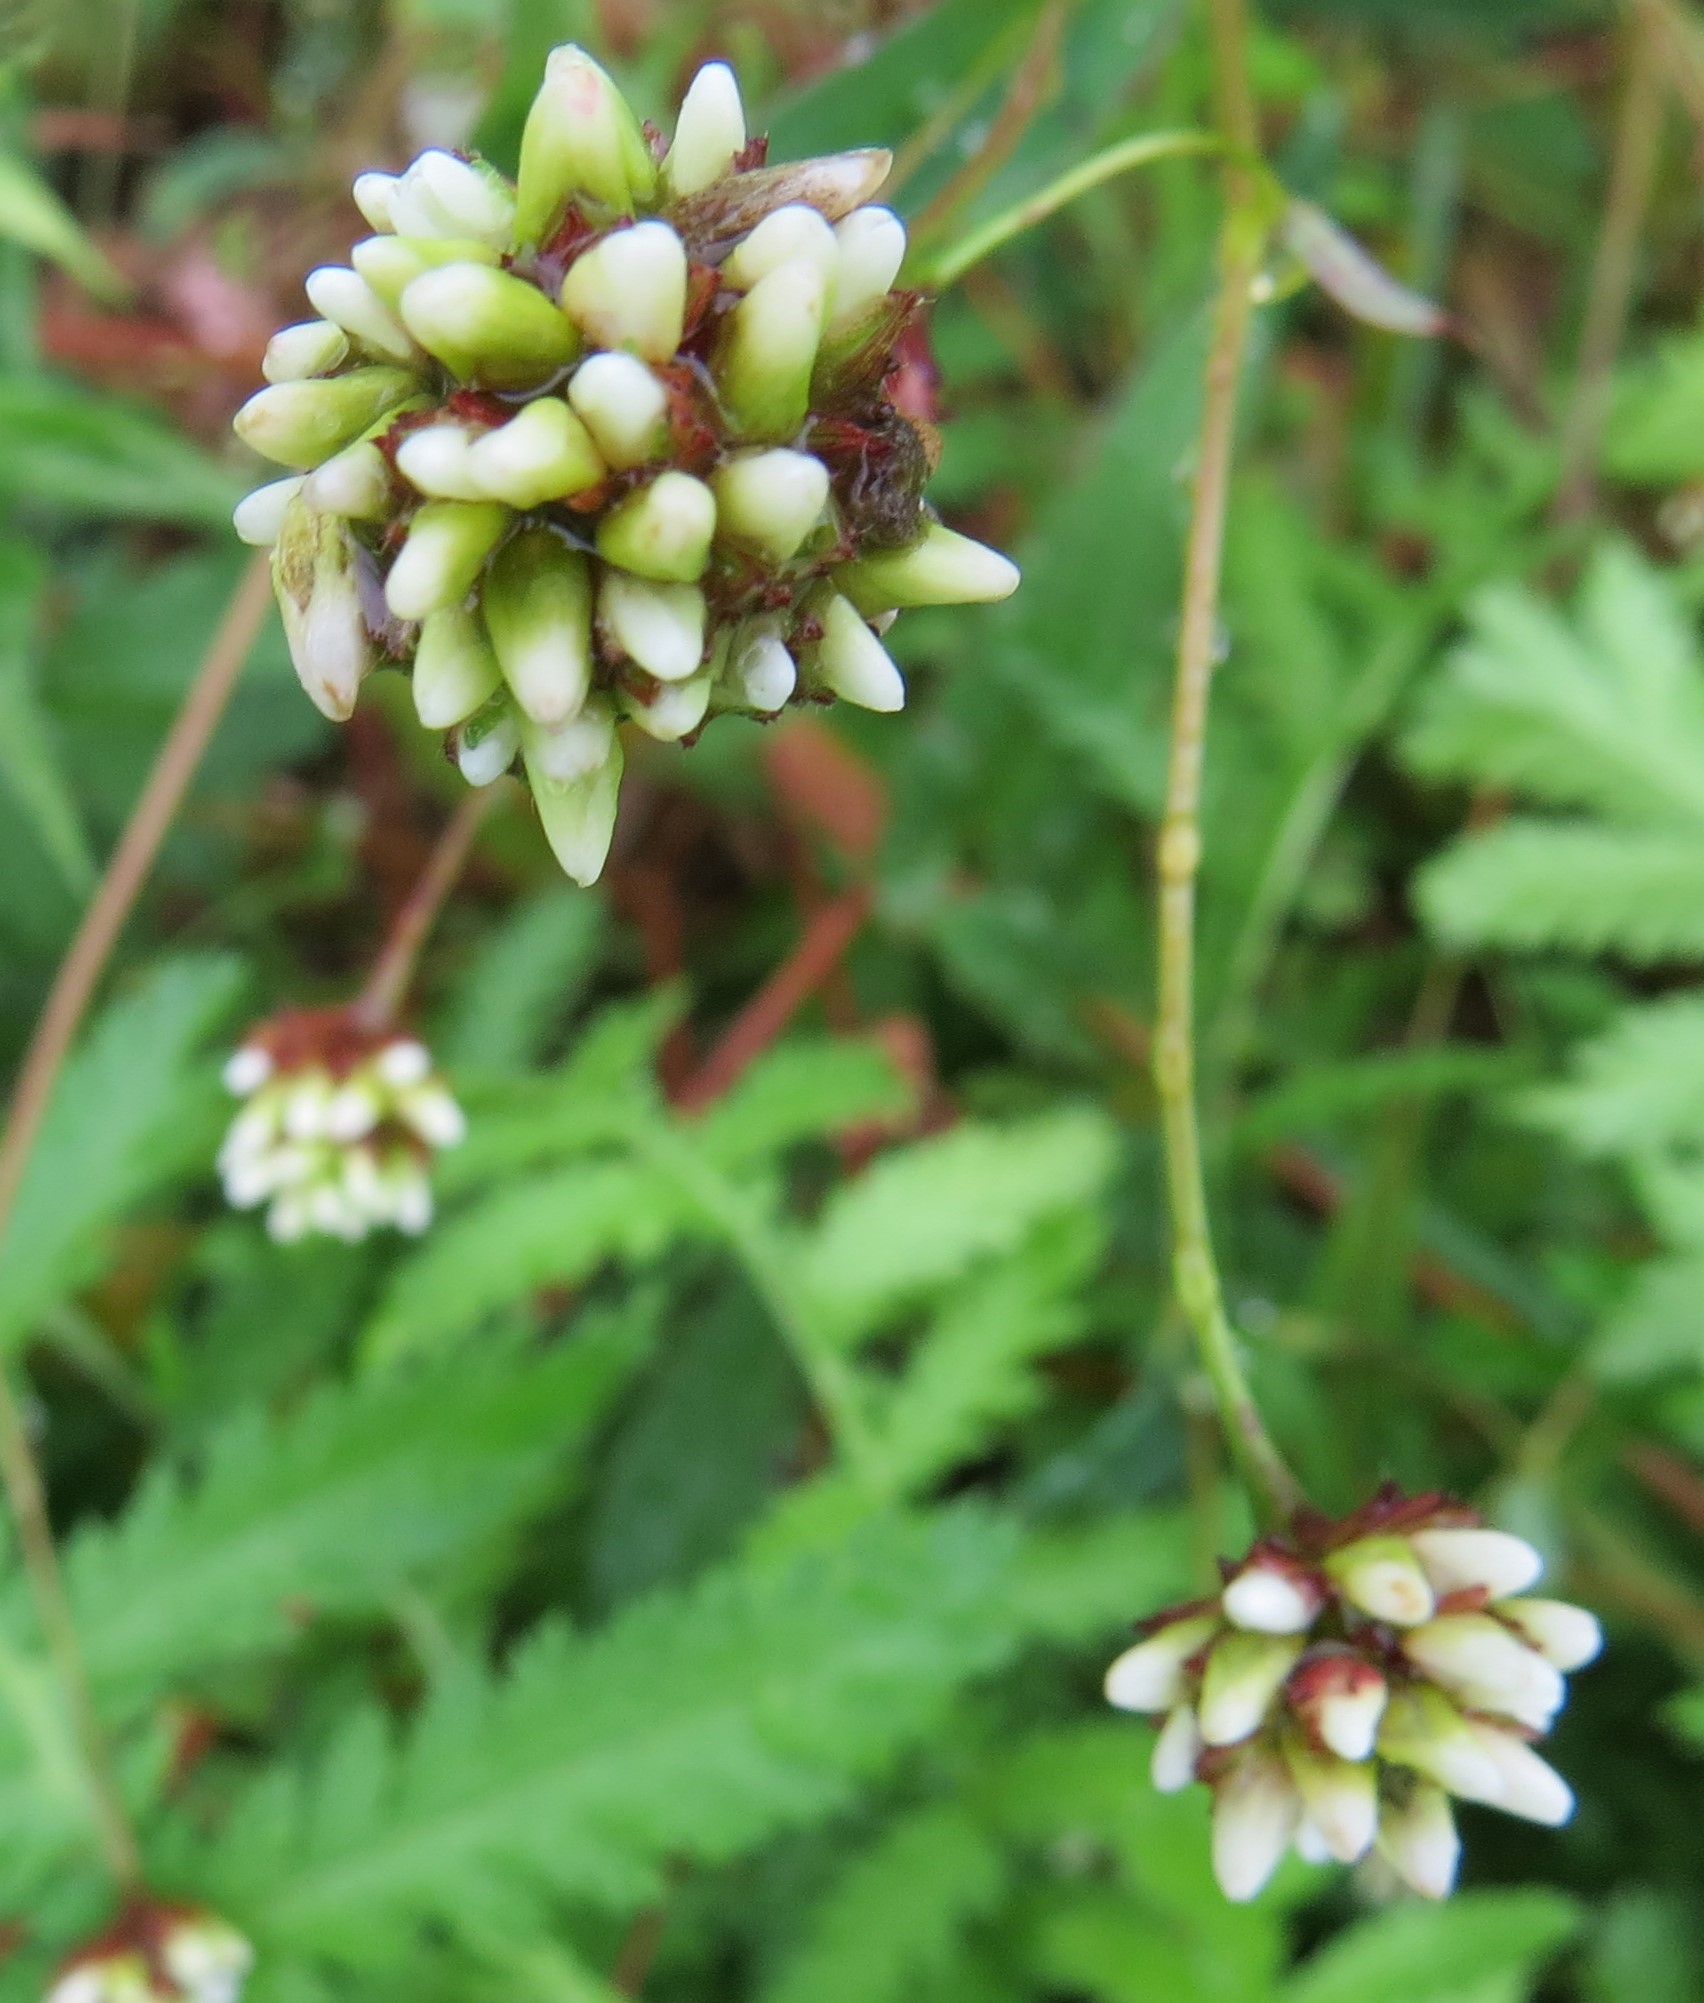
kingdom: Plantae
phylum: Tracheophyta
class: Magnoliopsida
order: Caryophyllales
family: Polygonaceae
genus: Persicaria
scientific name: Persicaria sagittata
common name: American tearthumb
